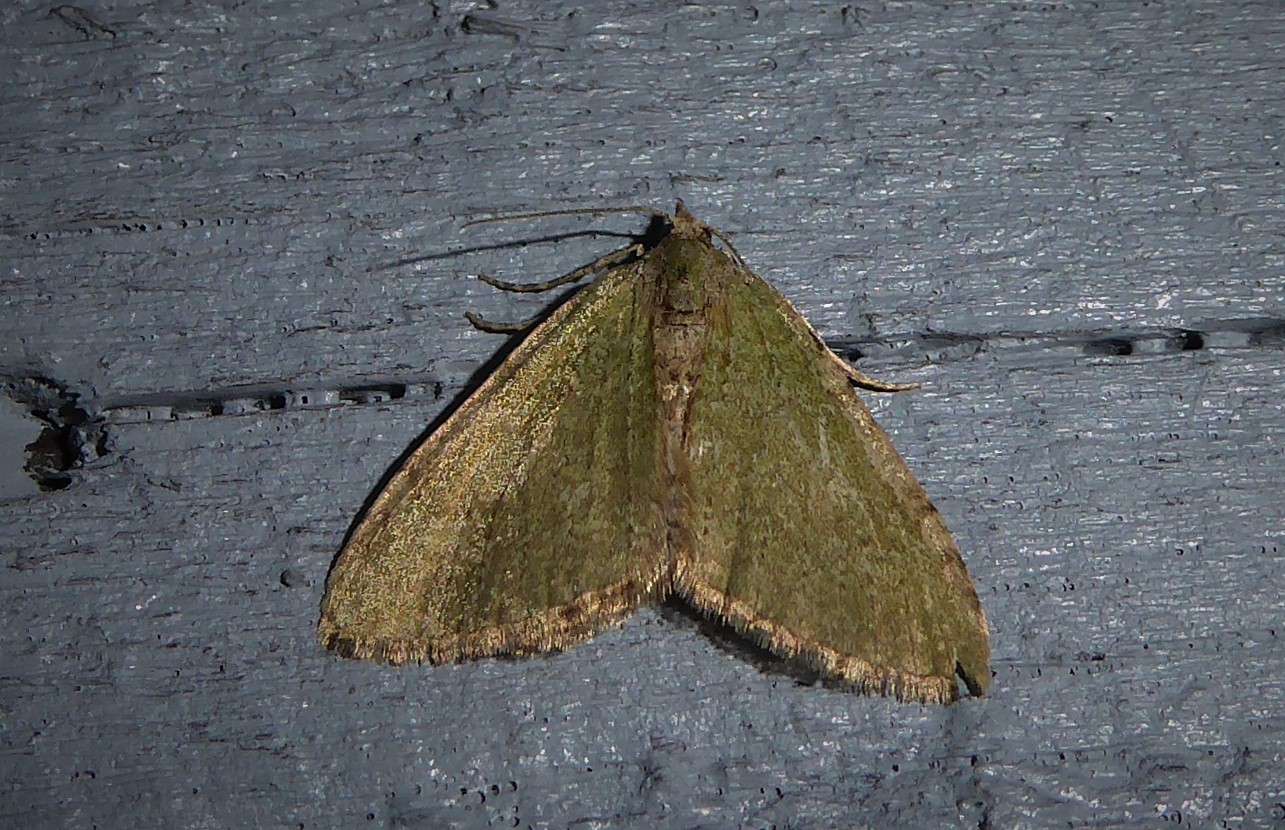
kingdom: Animalia
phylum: Arthropoda
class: Insecta
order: Lepidoptera
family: Geometridae
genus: Epyaxa
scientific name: Epyaxa rosearia
